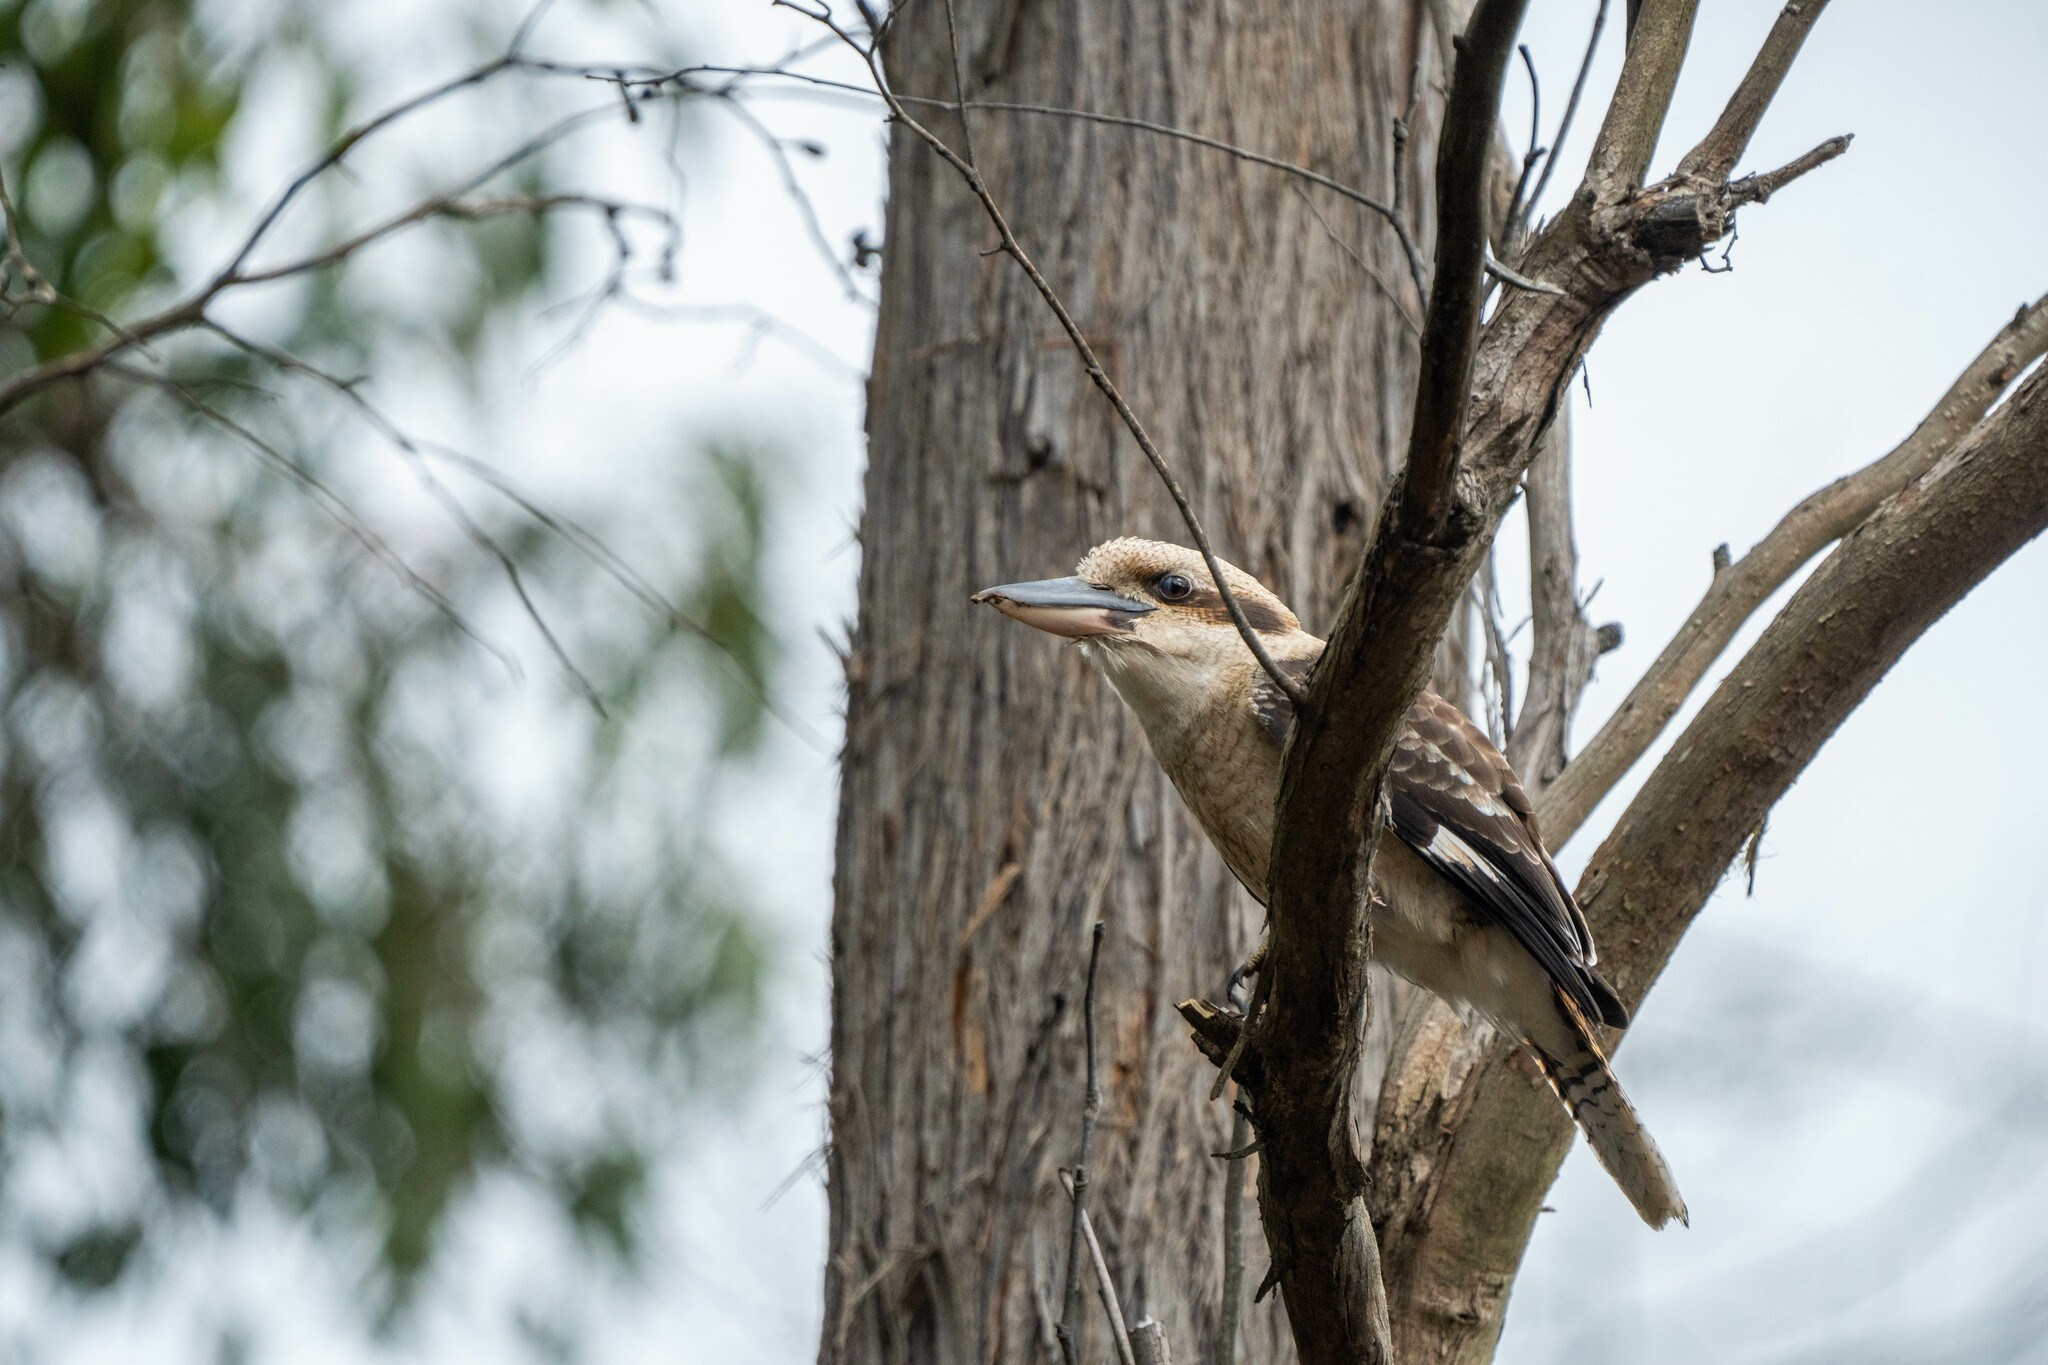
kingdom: Animalia
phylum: Chordata
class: Aves
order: Coraciiformes
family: Alcedinidae
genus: Dacelo
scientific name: Dacelo novaeguineae
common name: Laughing kookaburra
